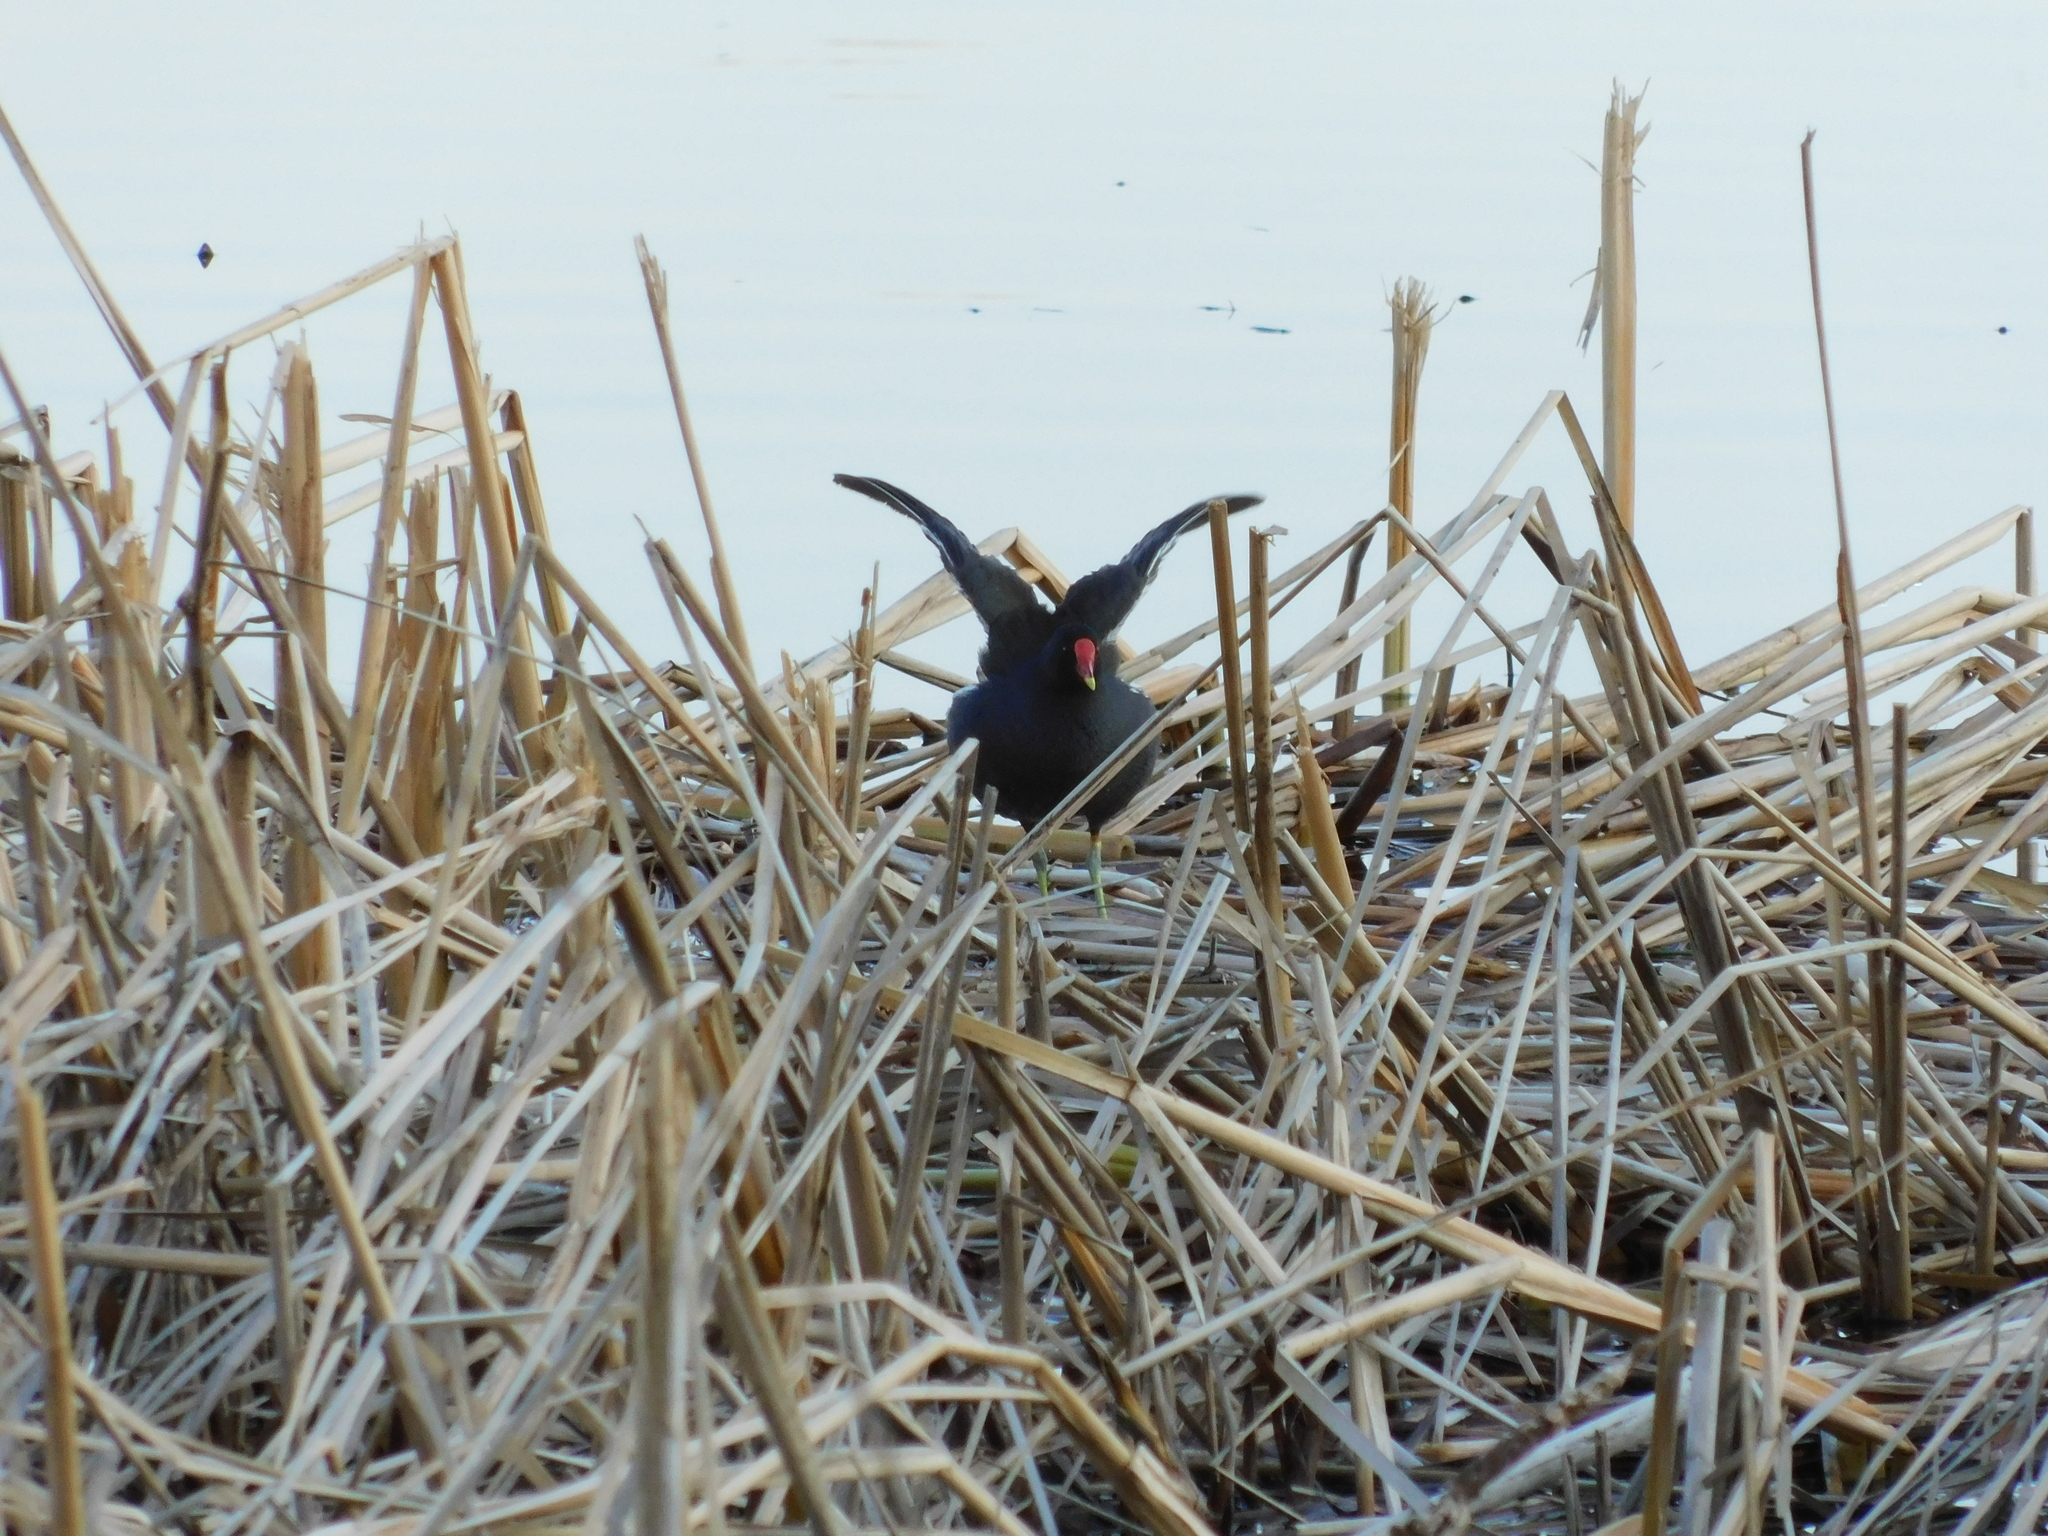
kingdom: Animalia
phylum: Chordata
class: Aves
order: Gruiformes
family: Rallidae
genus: Gallinula
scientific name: Gallinula chloropus
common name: Common moorhen
